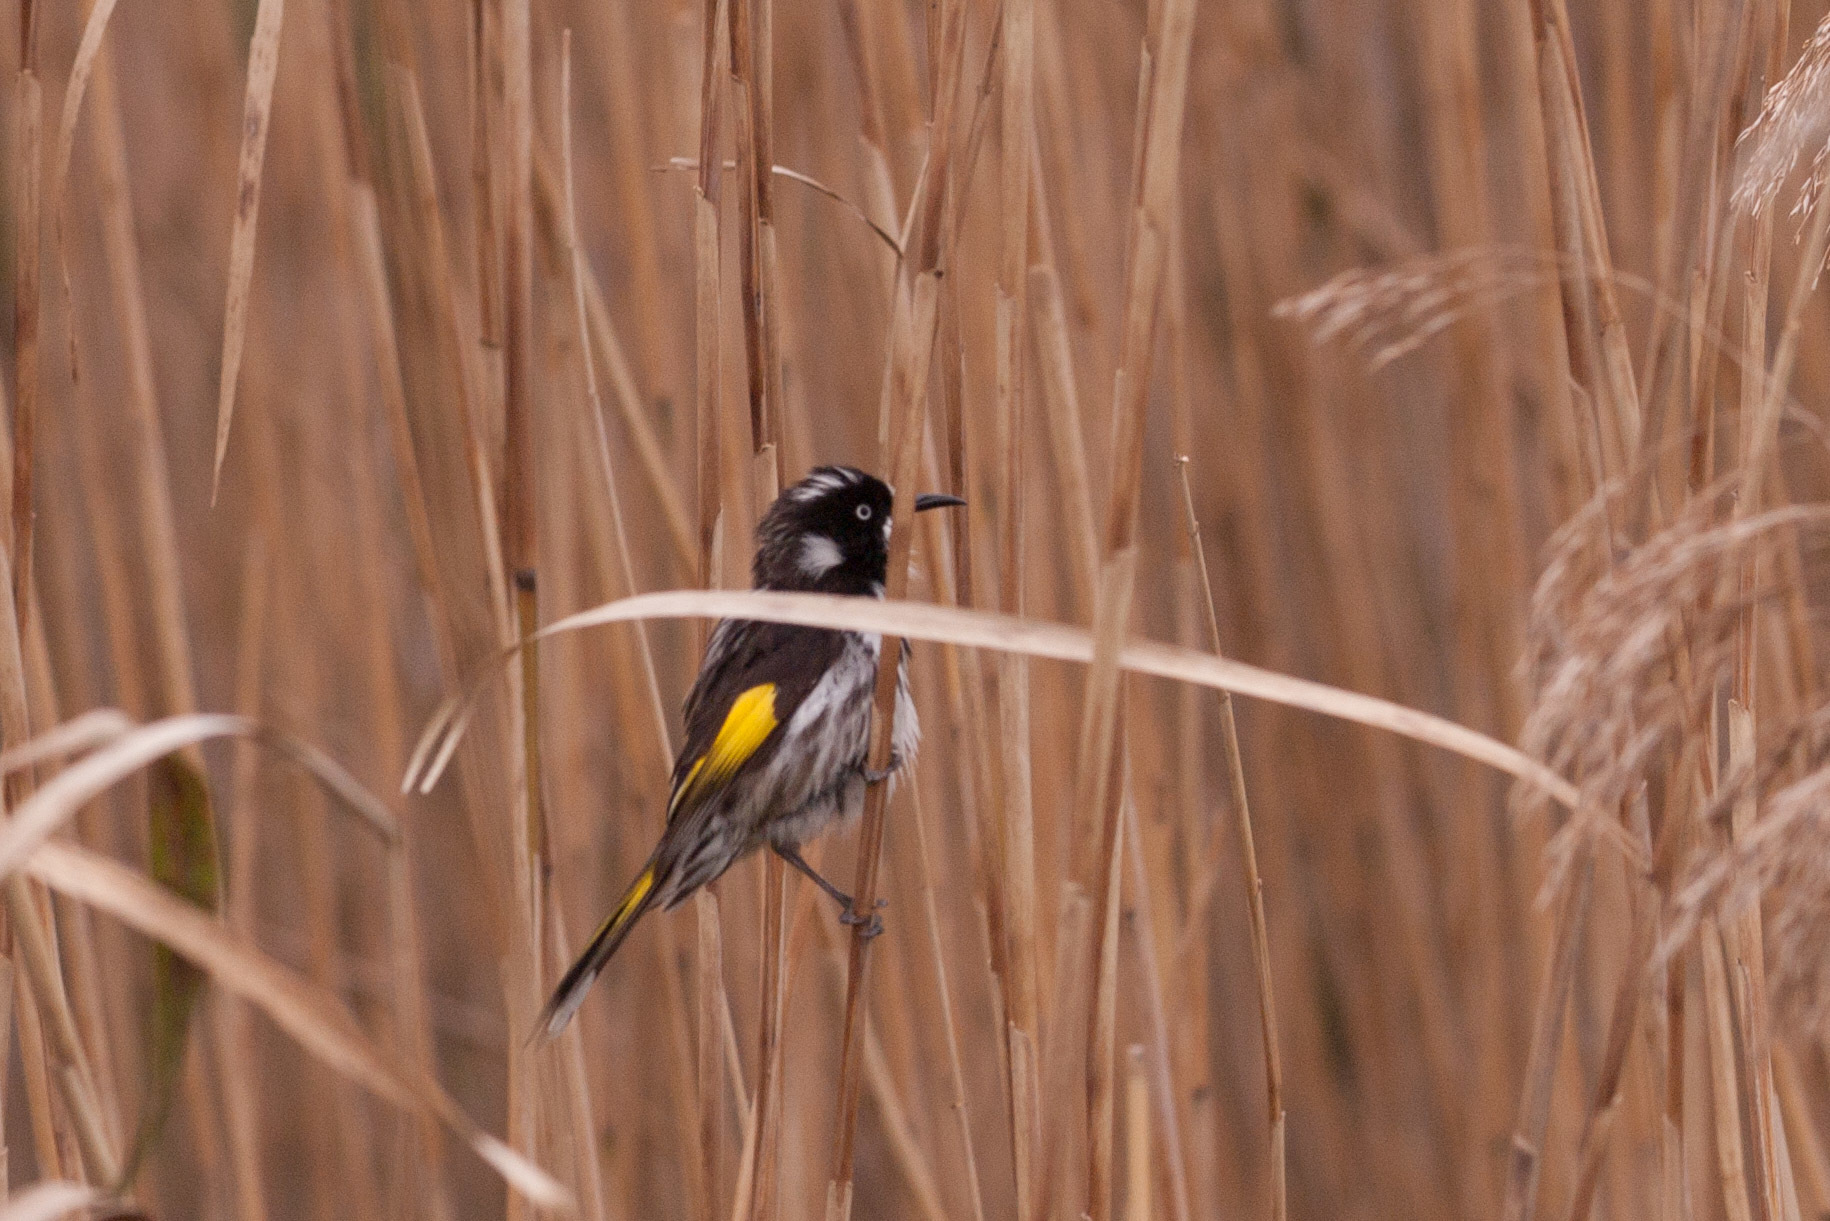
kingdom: Animalia
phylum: Chordata
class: Aves
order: Passeriformes
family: Meliphagidae
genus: Phylidonyris
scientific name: Phylidonyris novaehollandiae
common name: New holland honeyeater
